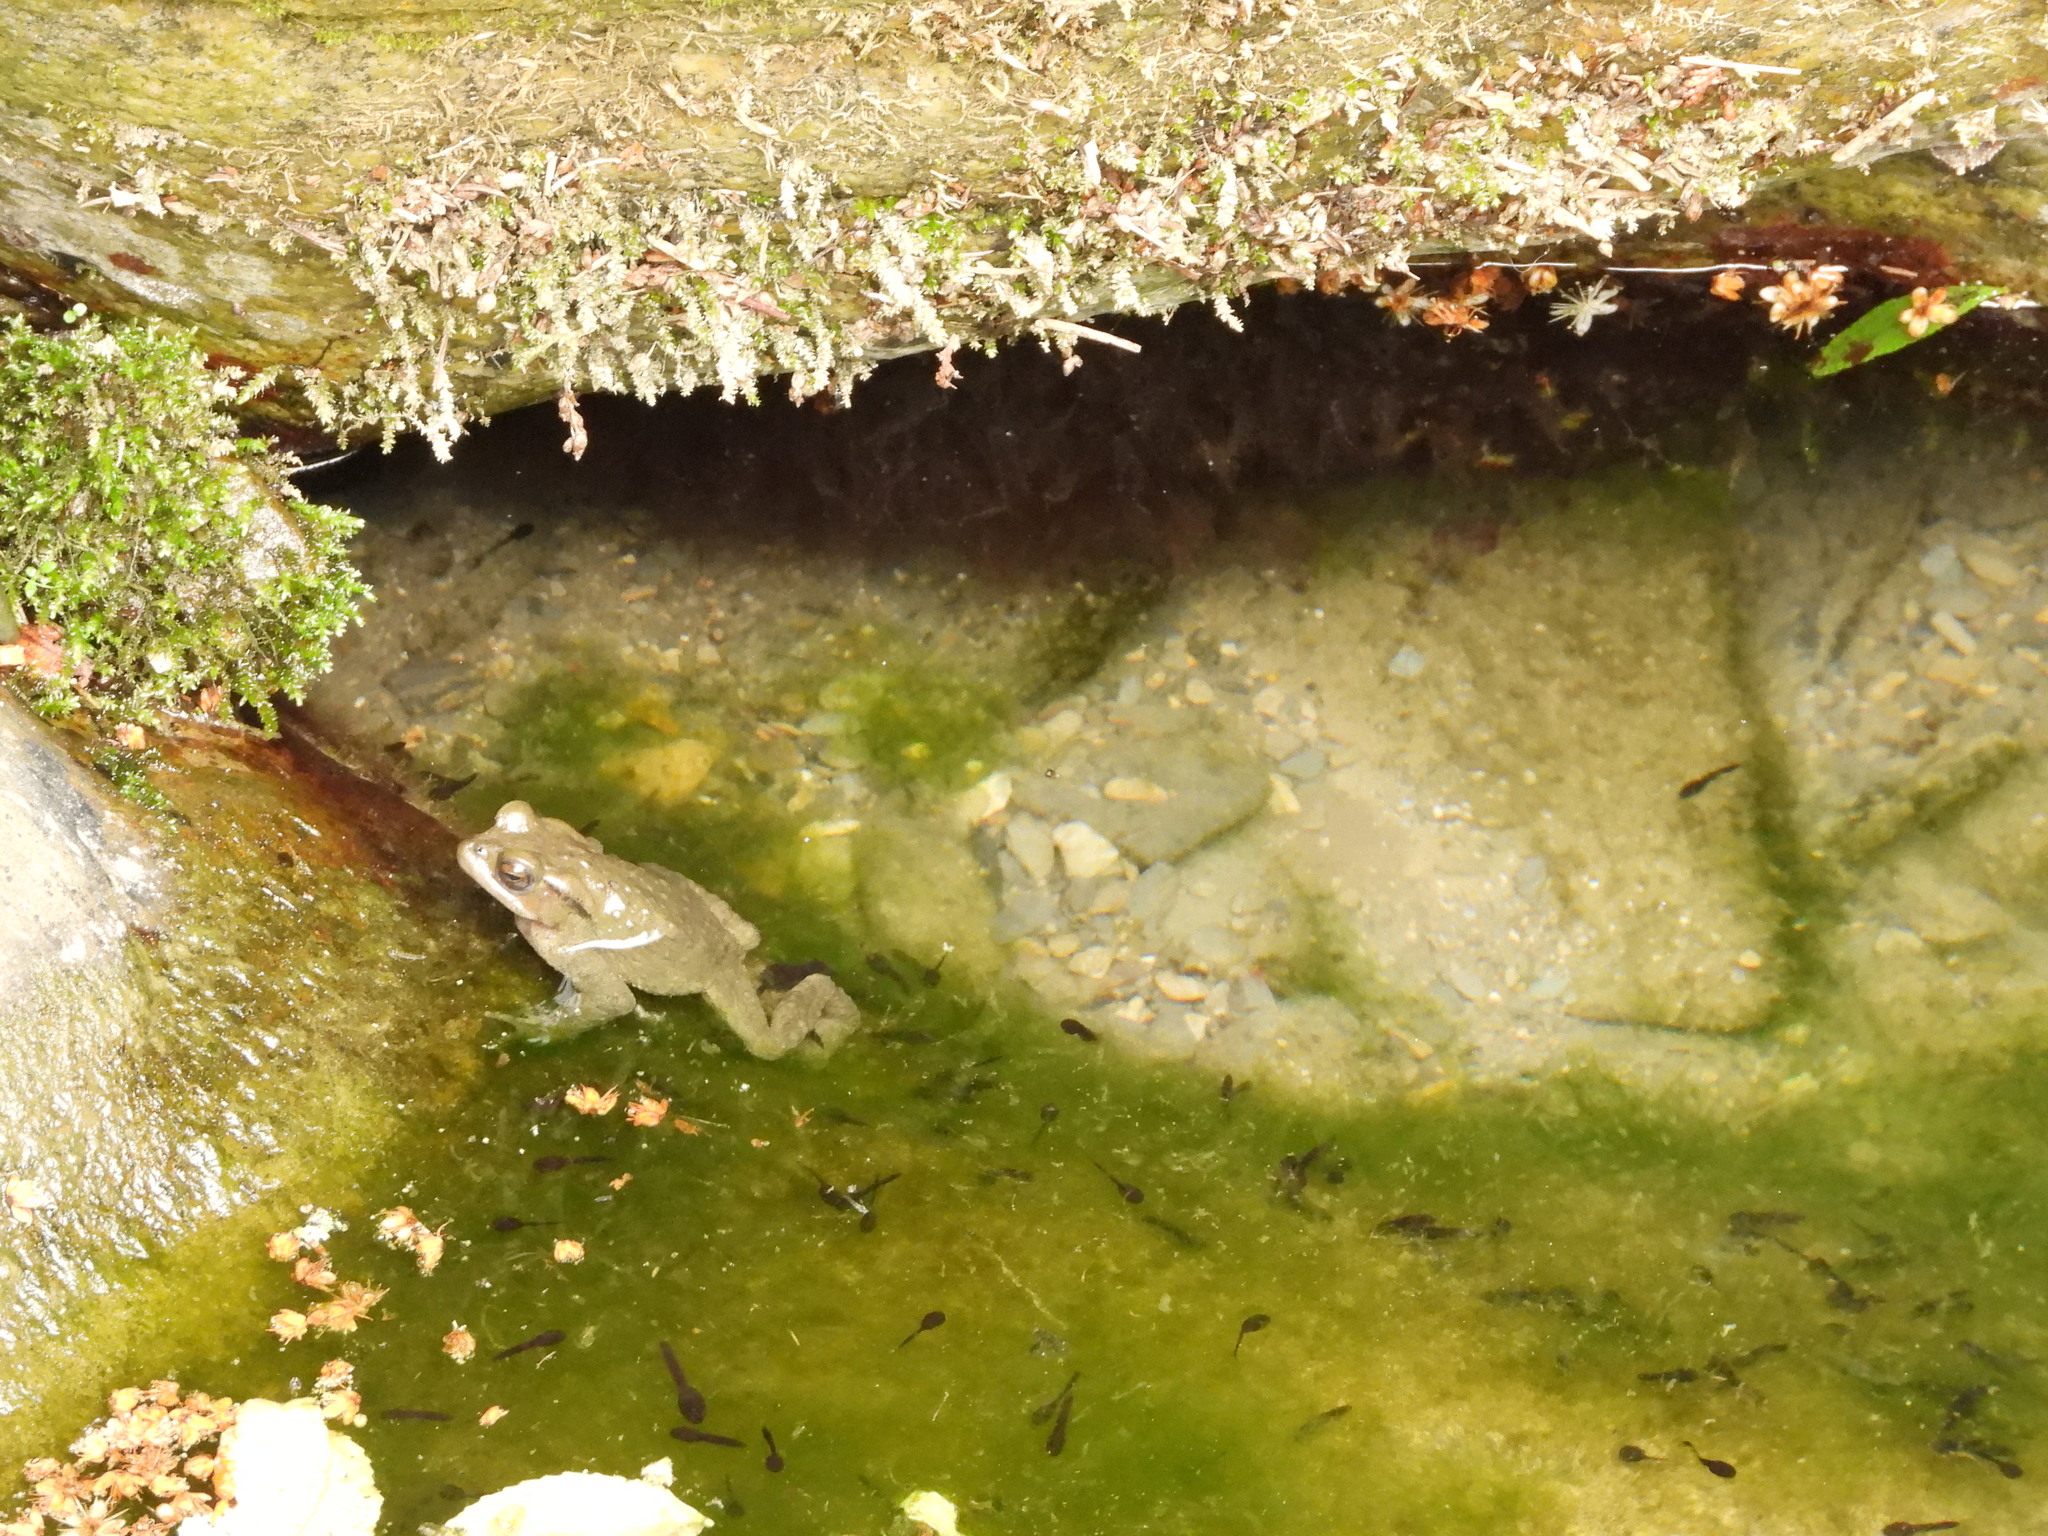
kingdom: Animalia
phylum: Chordata
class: Amphibia
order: Anura
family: Bufonidae
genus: Bufo
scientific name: Bufo bankorensis
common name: Bankor toad
